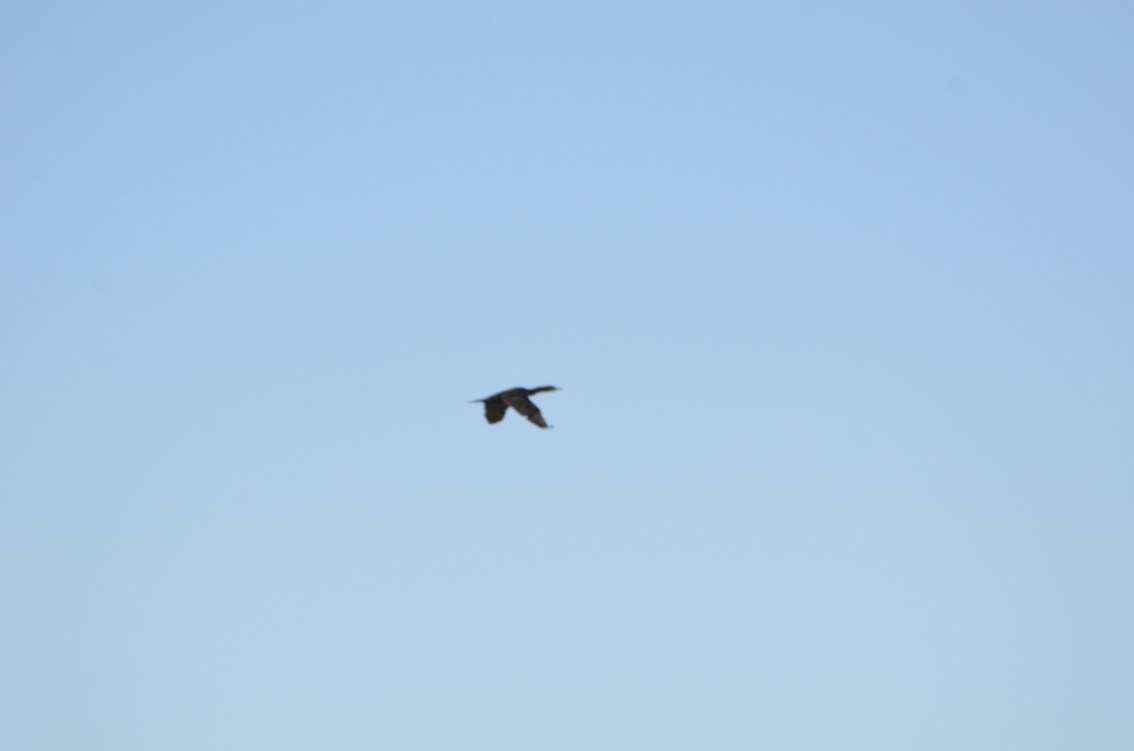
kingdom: Animalia
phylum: Chordata
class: Aves
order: Suliformes
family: Phalacrocoracidae
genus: Phalacrocorax
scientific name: Phalacrocorax carbo
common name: Great cormorant
